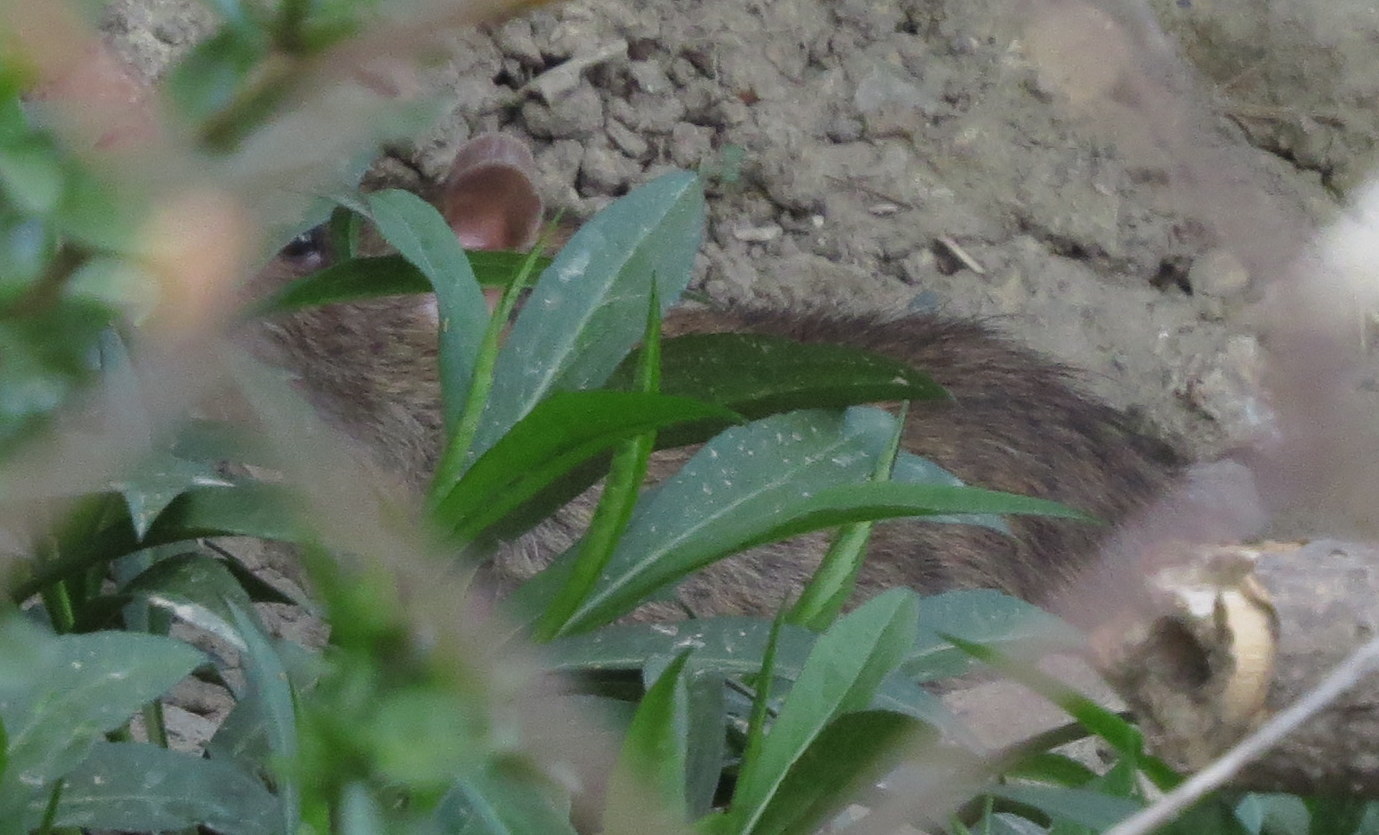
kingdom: Animalia
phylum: Chordata
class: Mammalia
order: Rodentia
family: Muridae
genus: Rattus
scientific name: Rattus norvegicus
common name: Brown rat
